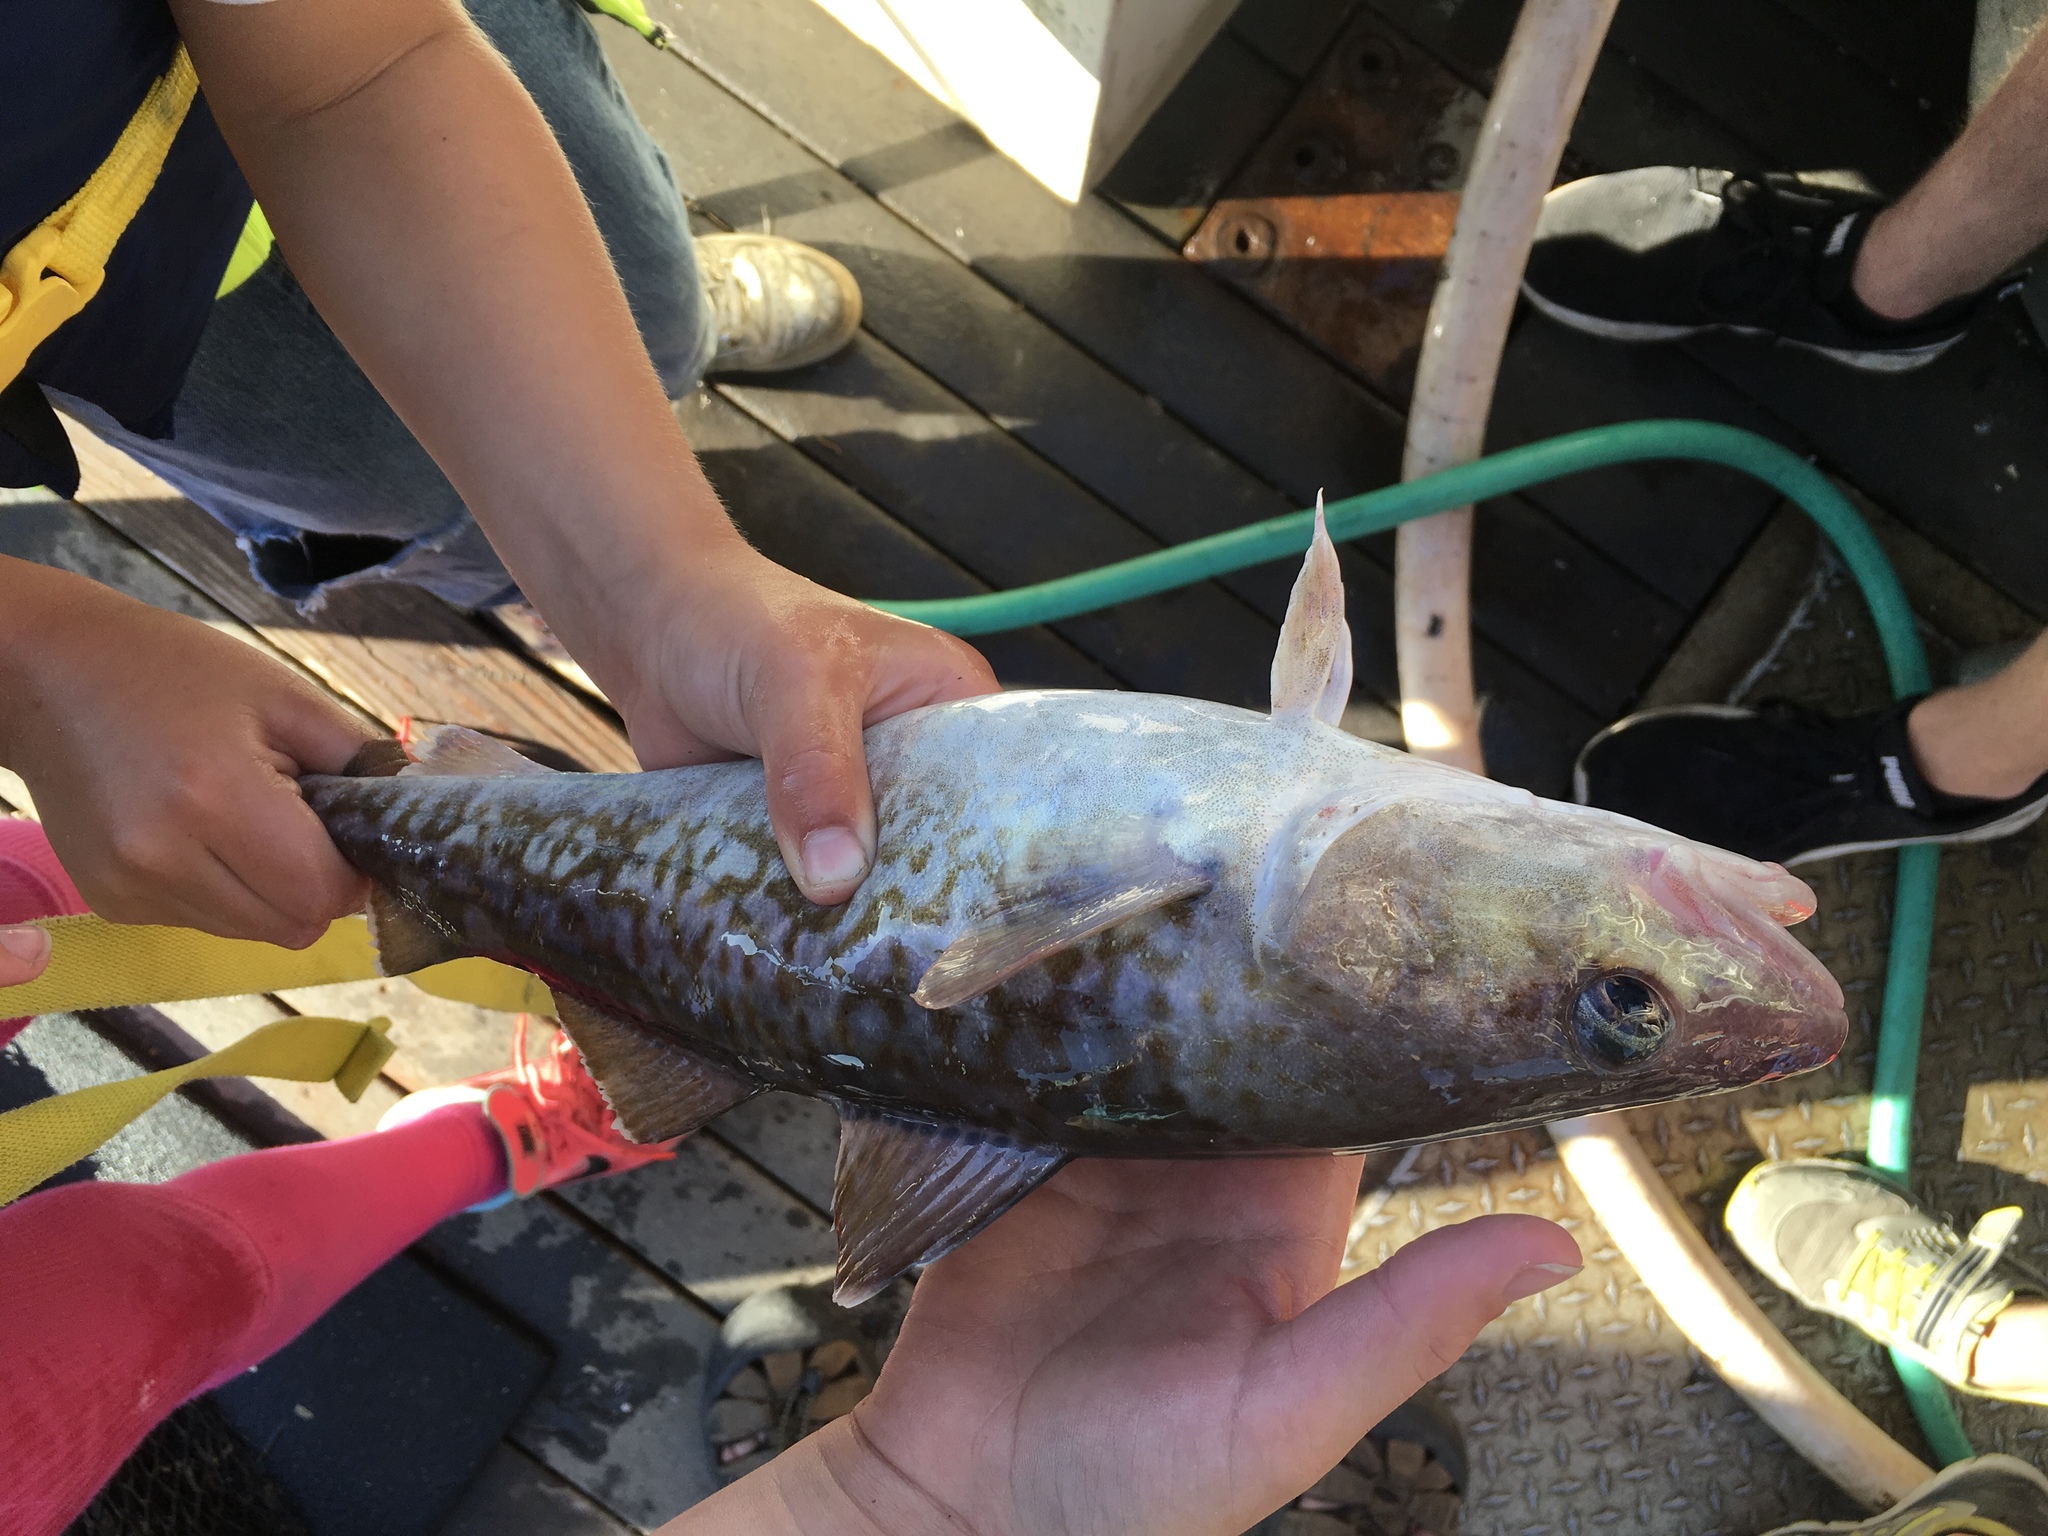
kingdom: Animalia
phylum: Chordata
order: Gadiformes
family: Gadidae
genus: Gadus
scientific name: Gadus macrocephalus
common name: Pacific cod
